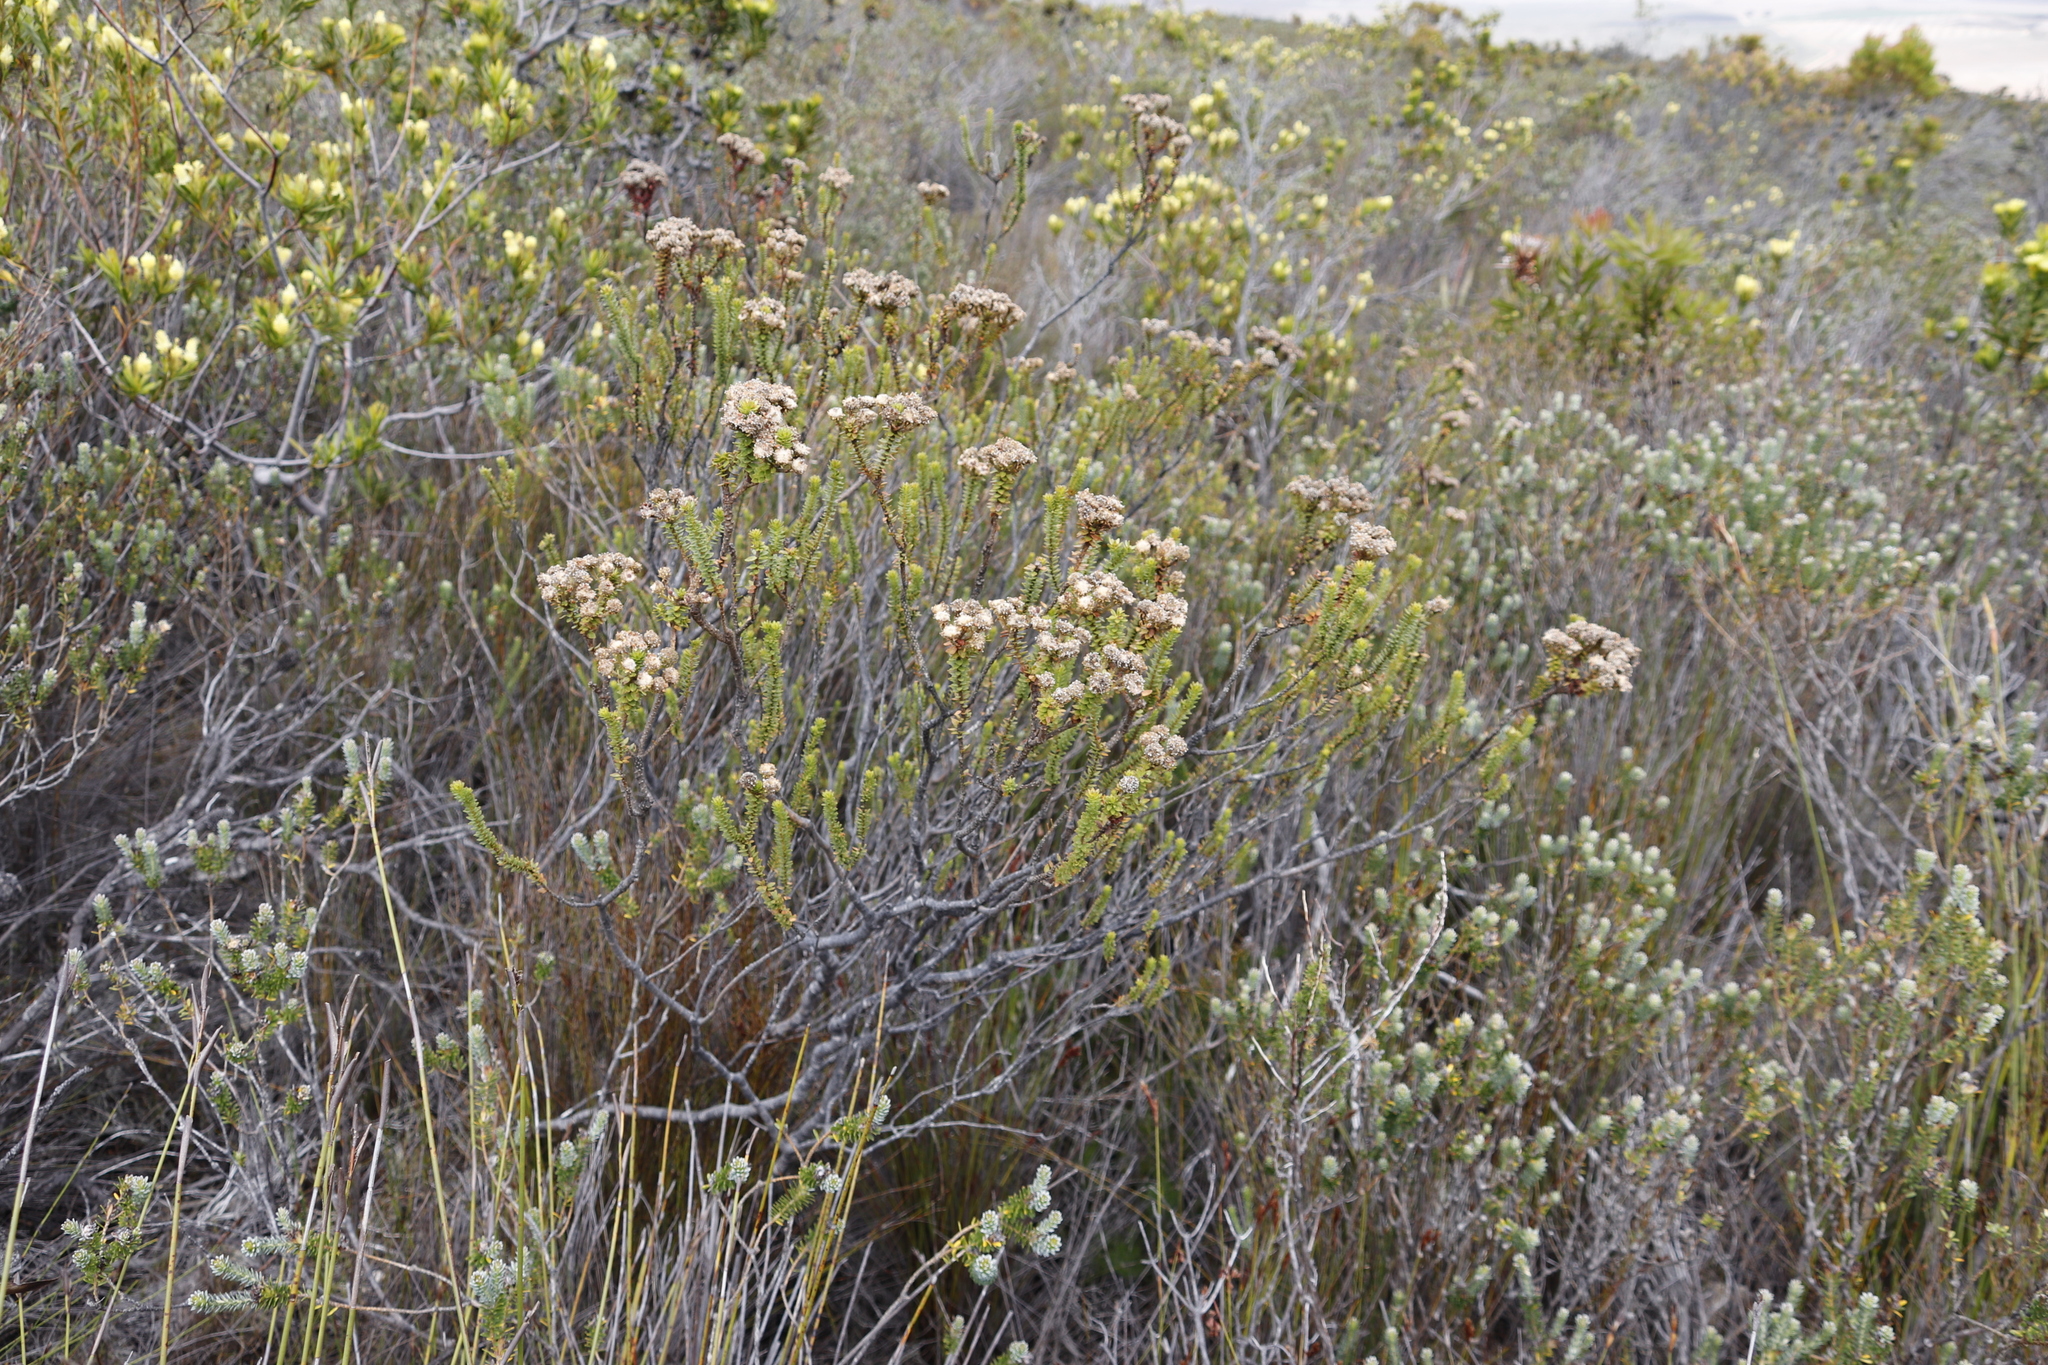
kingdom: Plantae
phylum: Tracheophyta
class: Magnoliopsida
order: Bruniales
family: Bruniaceae
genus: Berzelia
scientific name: Berzelia cordifolia
